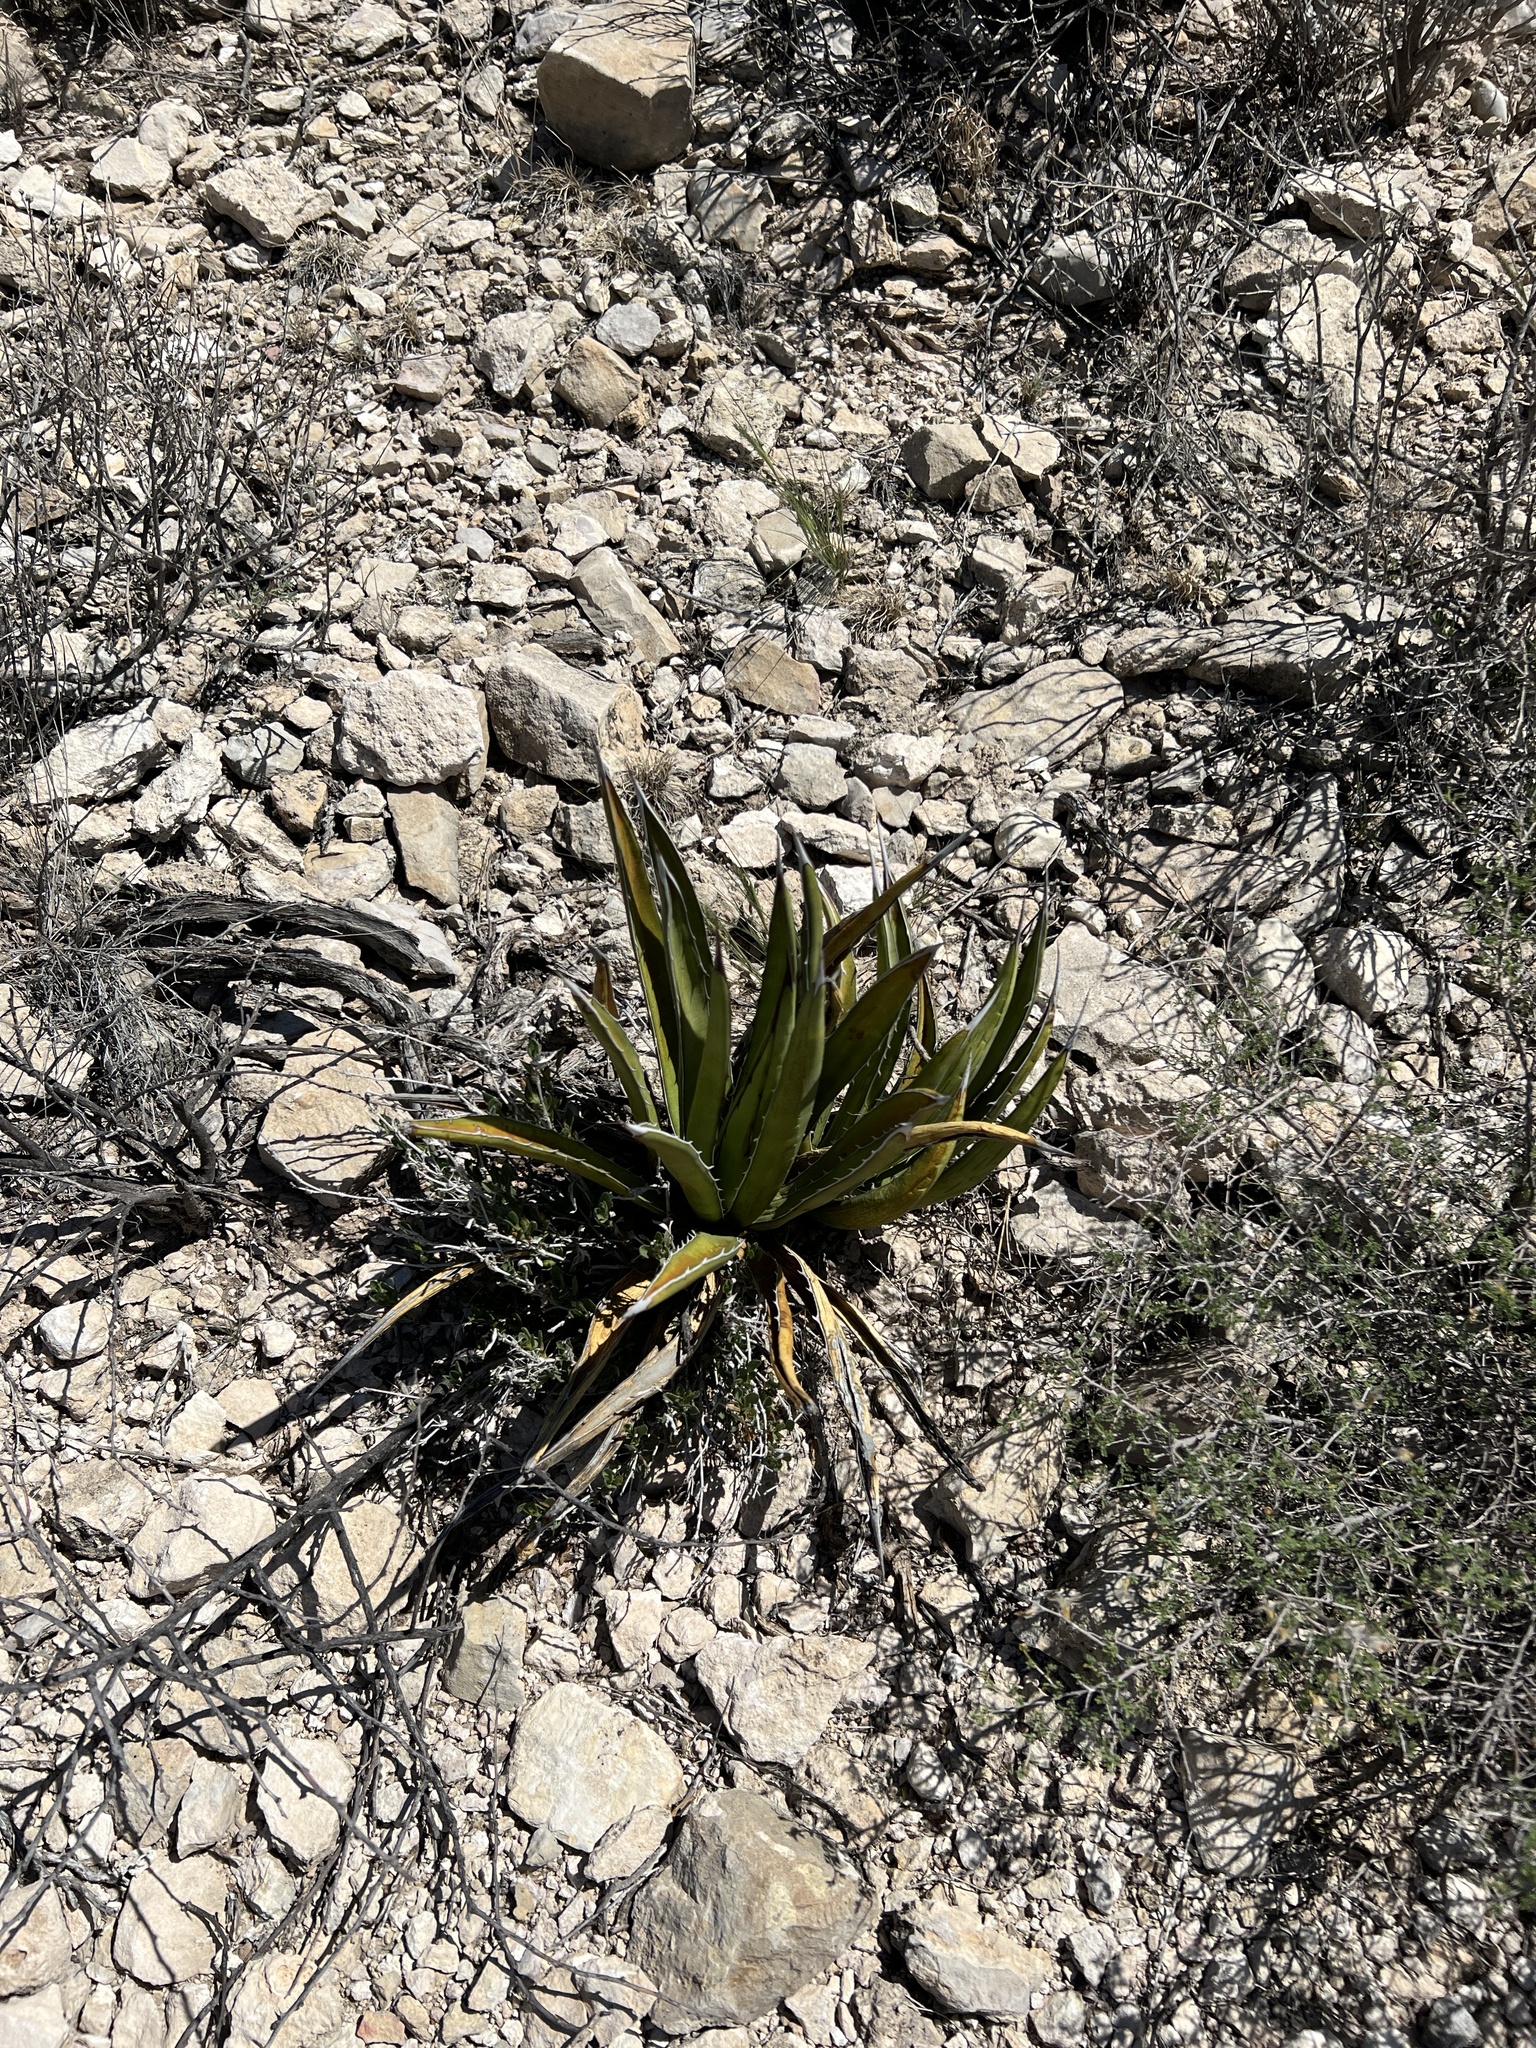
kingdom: Plantae
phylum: Tracheophyta
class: Liliopsida
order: Asparagales
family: Asparagaceae
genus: Agave
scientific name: Agave lechuguilla
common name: Lecheguilla agave
